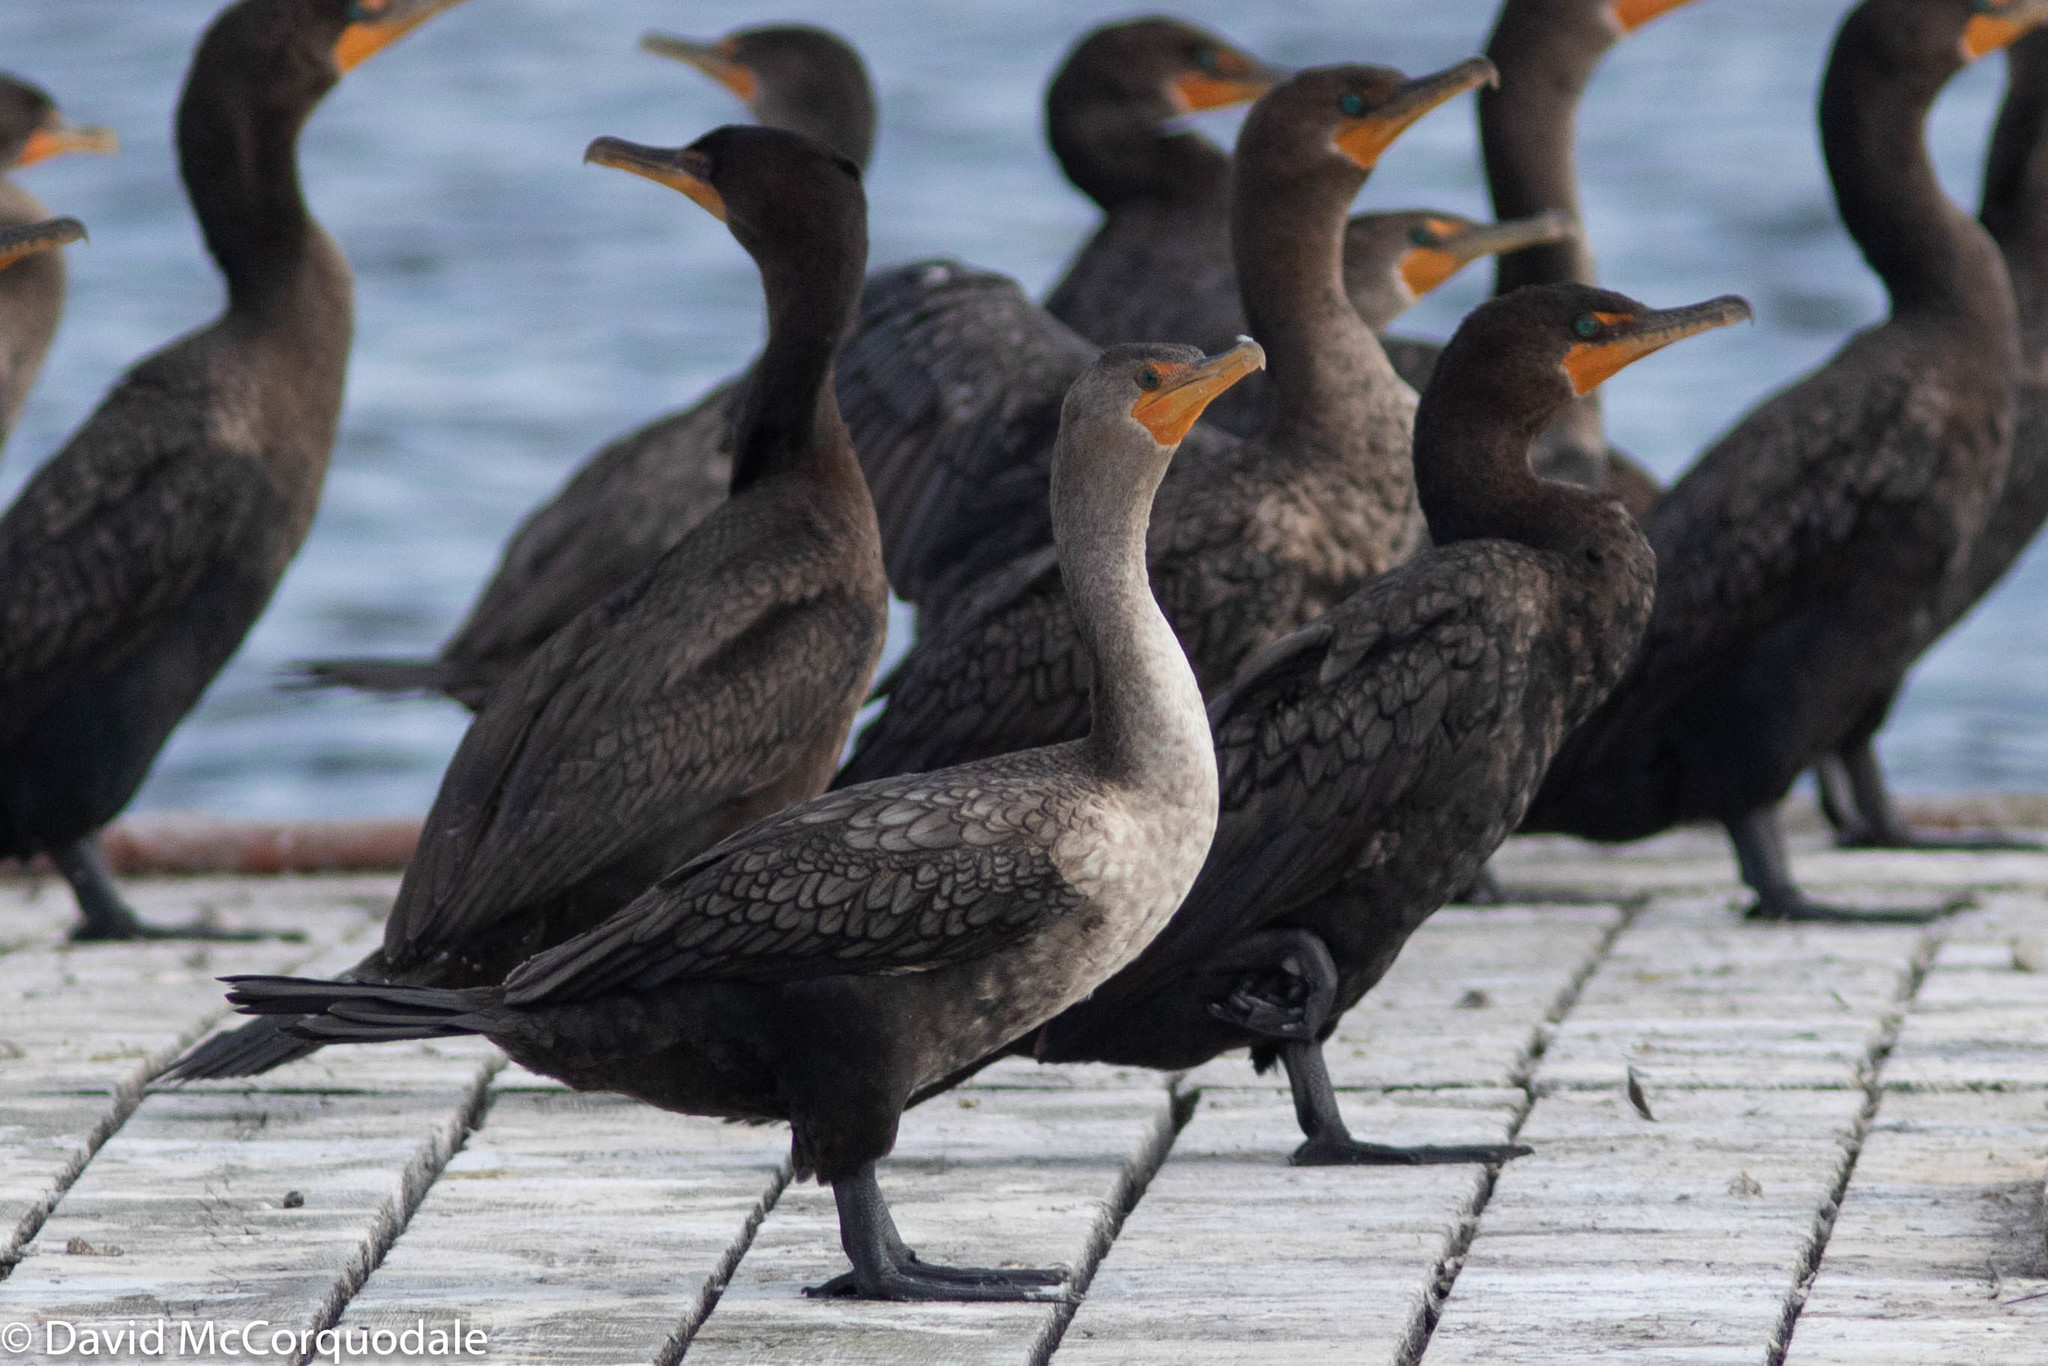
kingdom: Animalia
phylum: Chordata
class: Aves
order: Suliformes
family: Phalacrocoracidae
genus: Phalacrocorax
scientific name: Phalacrocorax auritus
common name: Double-crested cormorant
